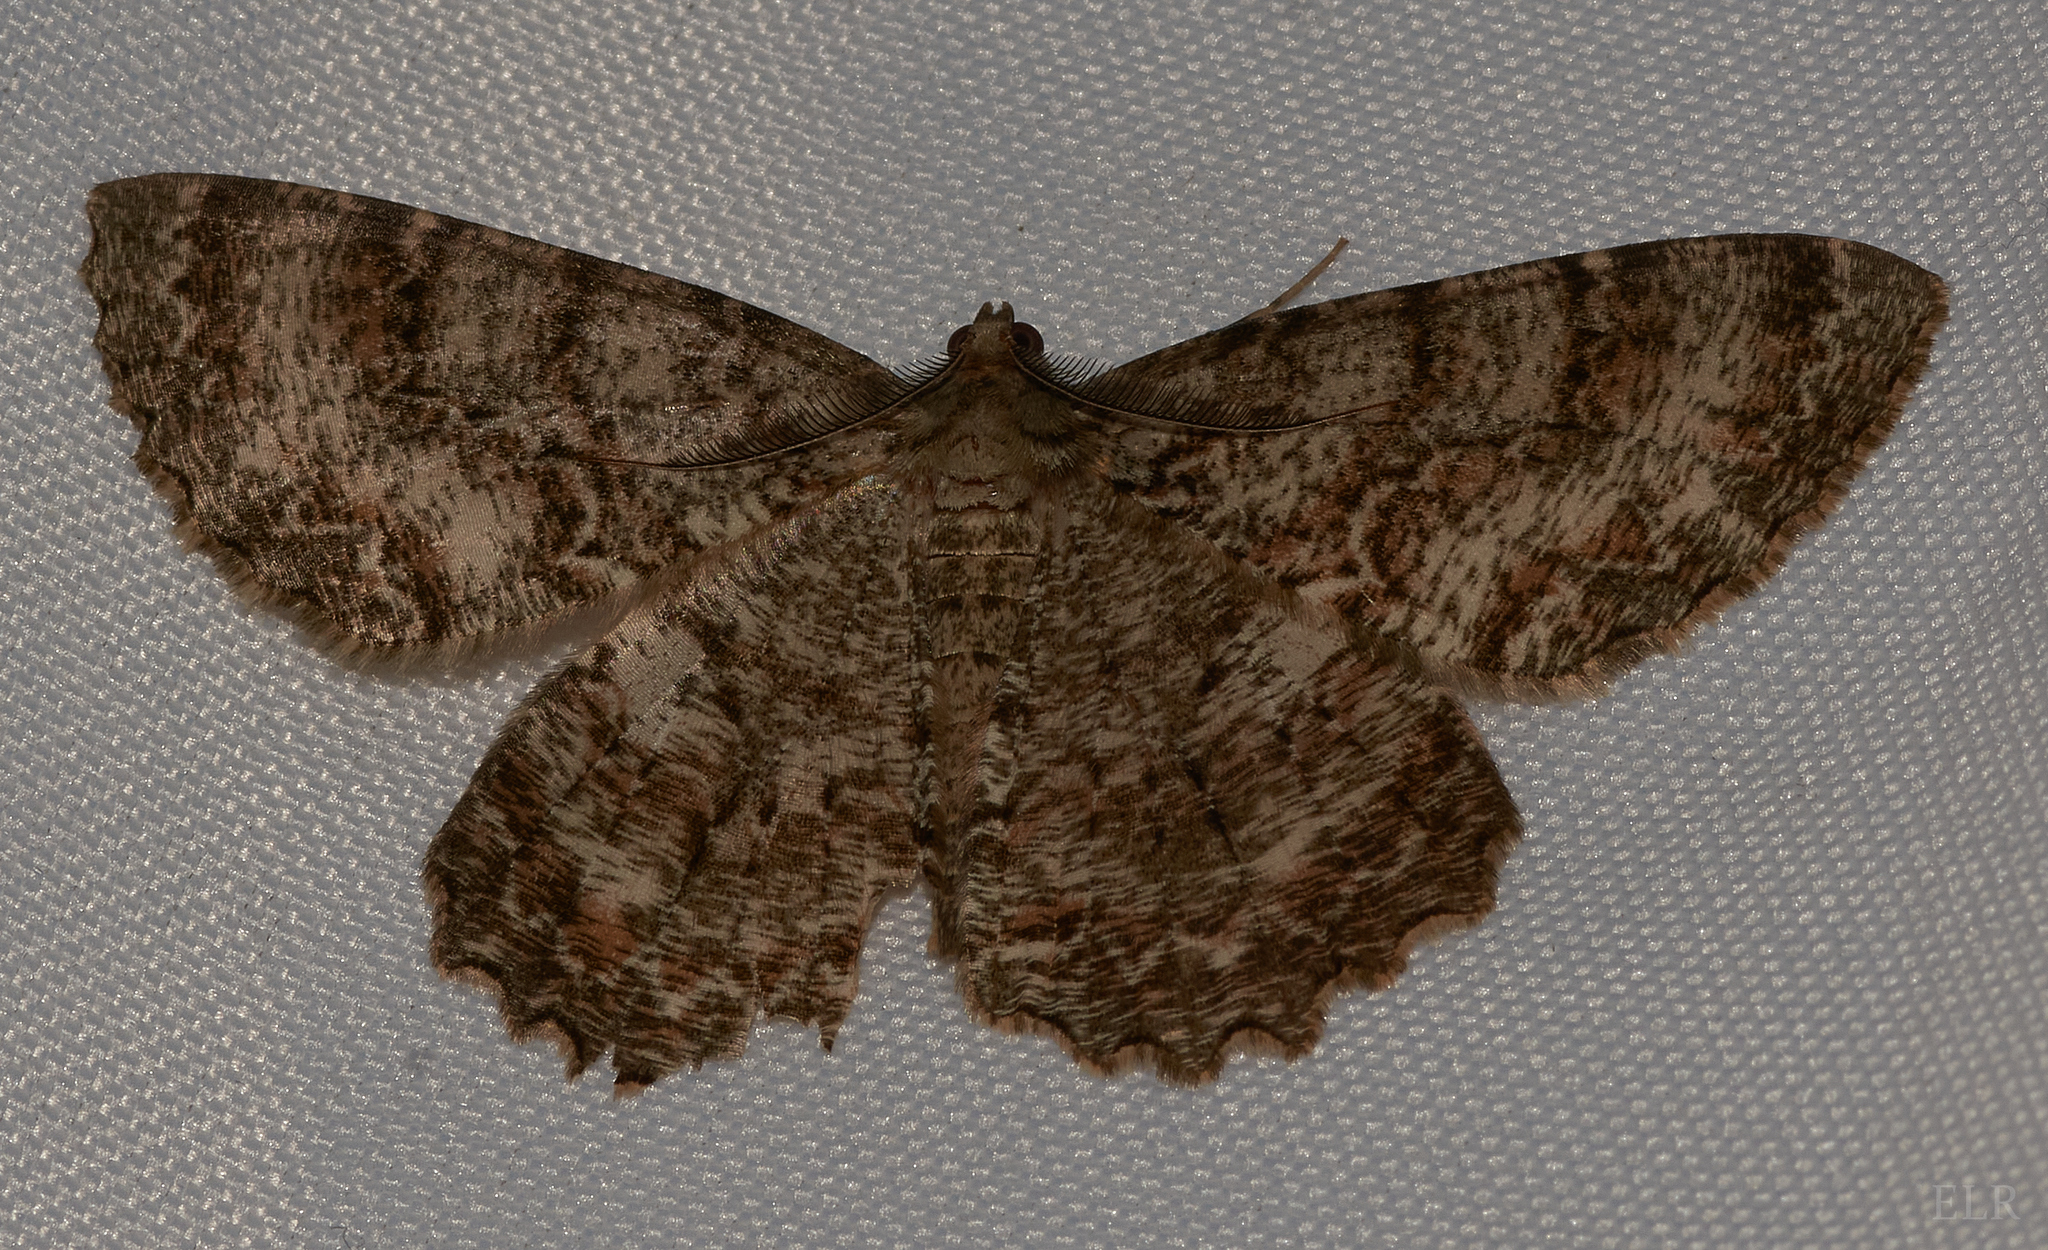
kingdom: Animalia
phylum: Arthropoda
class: Insecta
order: Lepidoptera
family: Geometridae
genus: Epimecis
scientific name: Epimecis hortaria
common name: Tulip-tree beauty
